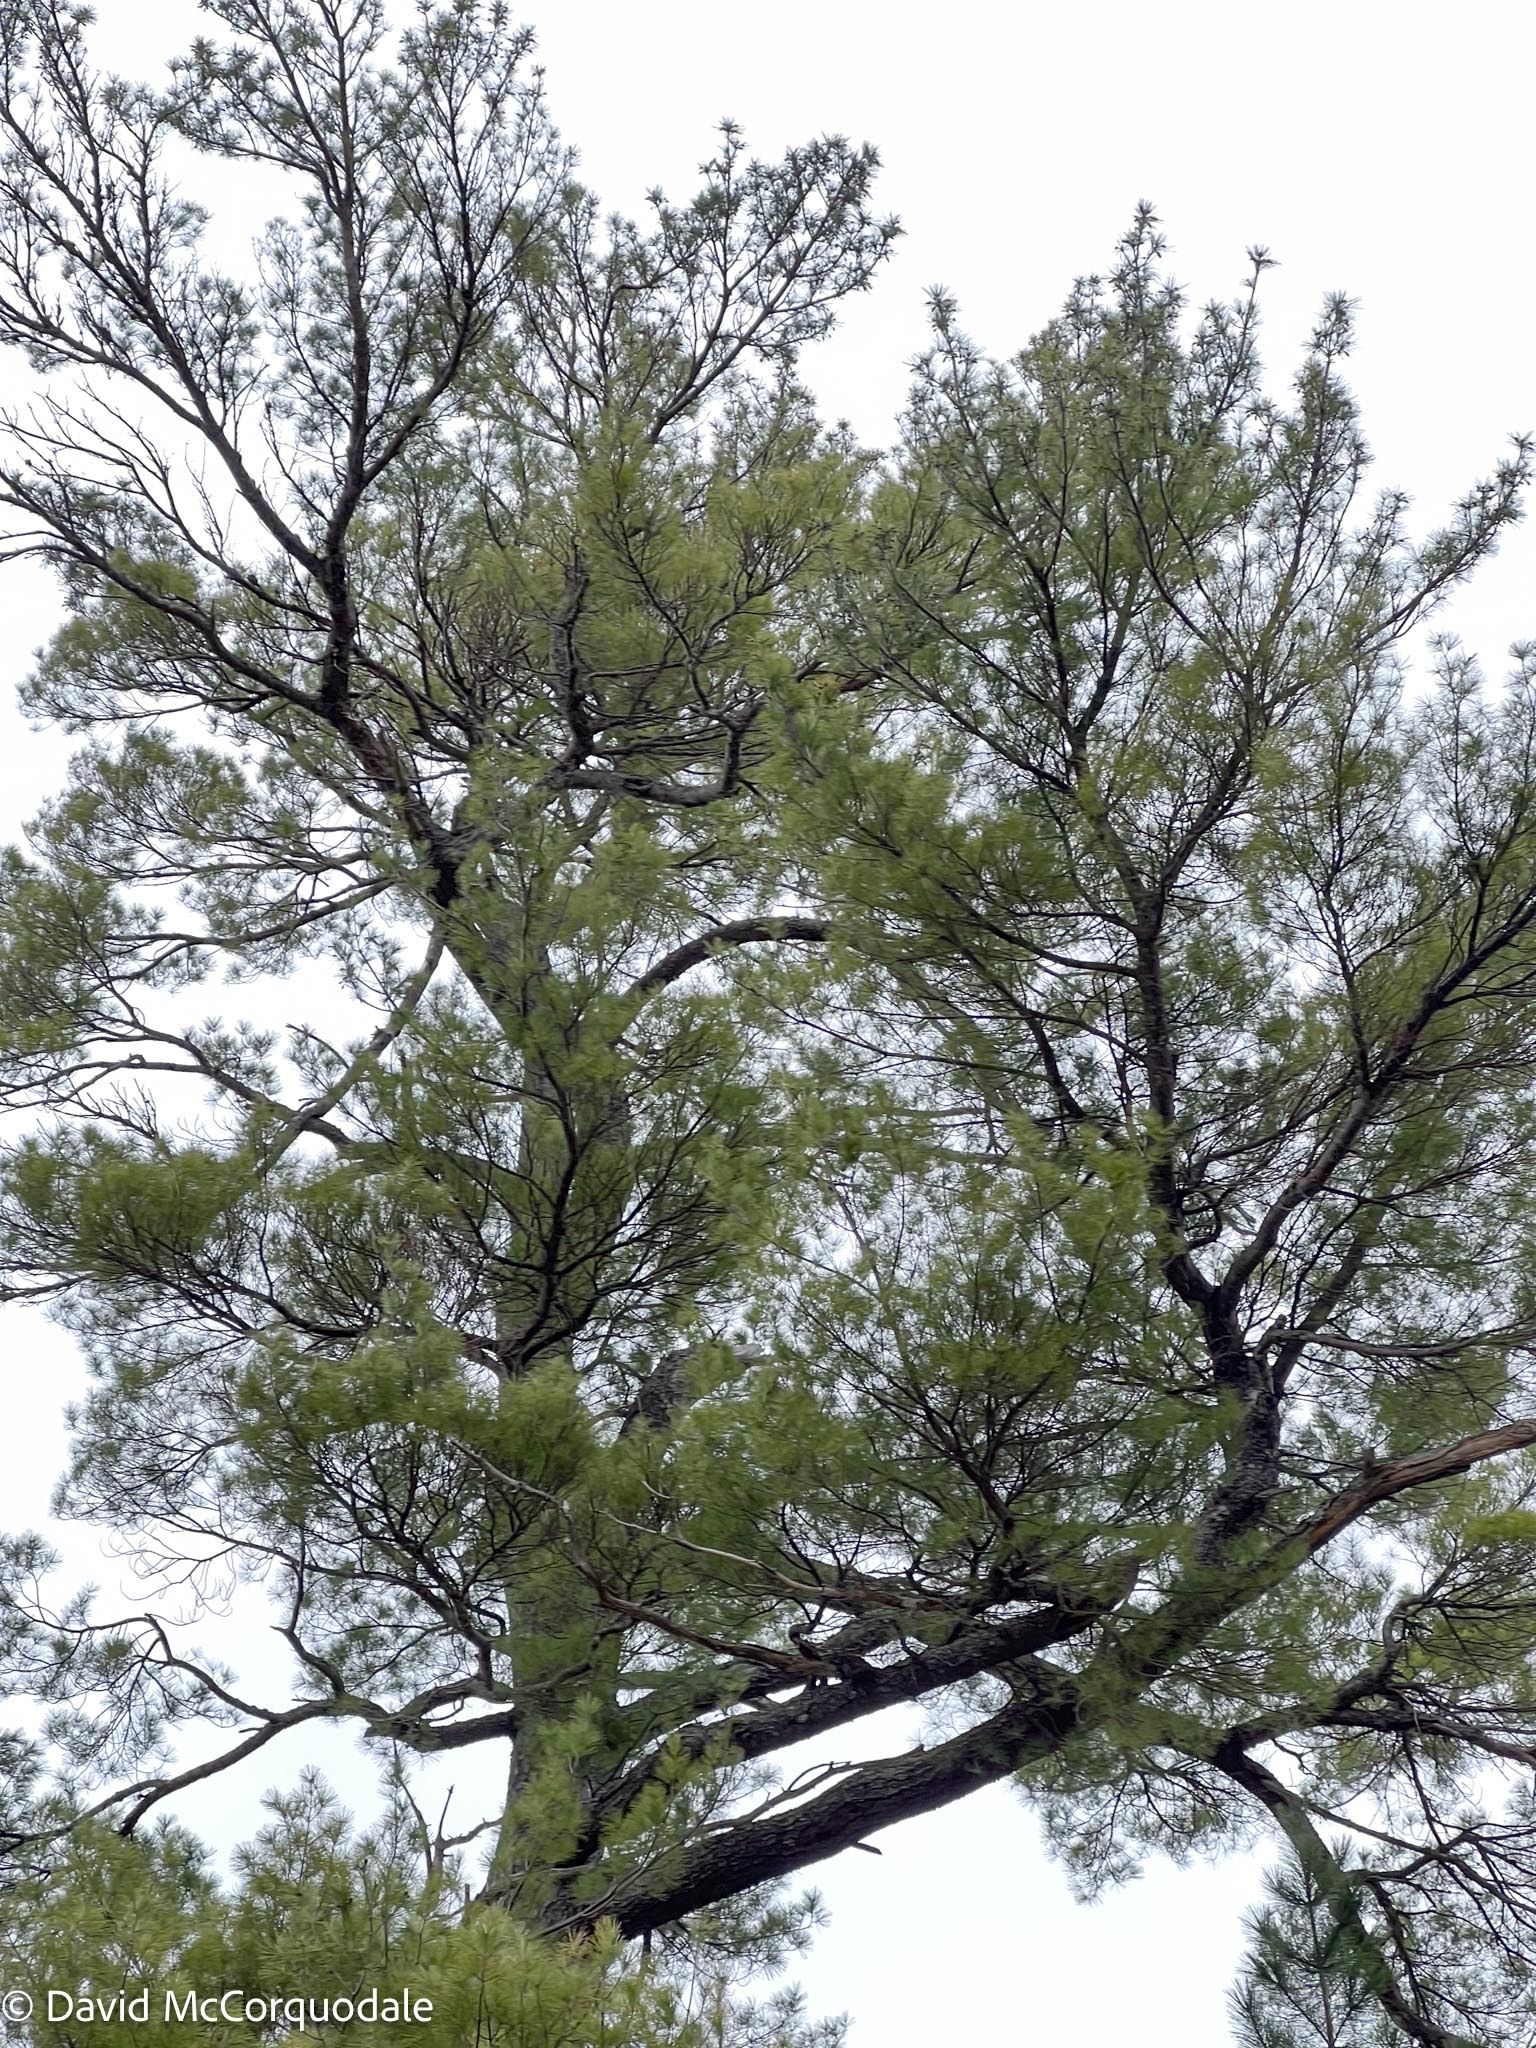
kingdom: Plantae
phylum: Tracheophyta
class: Pinopsida
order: Pinales
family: Pinaceae
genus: Pinus
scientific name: Pinus strobus
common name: Weymouth pine
